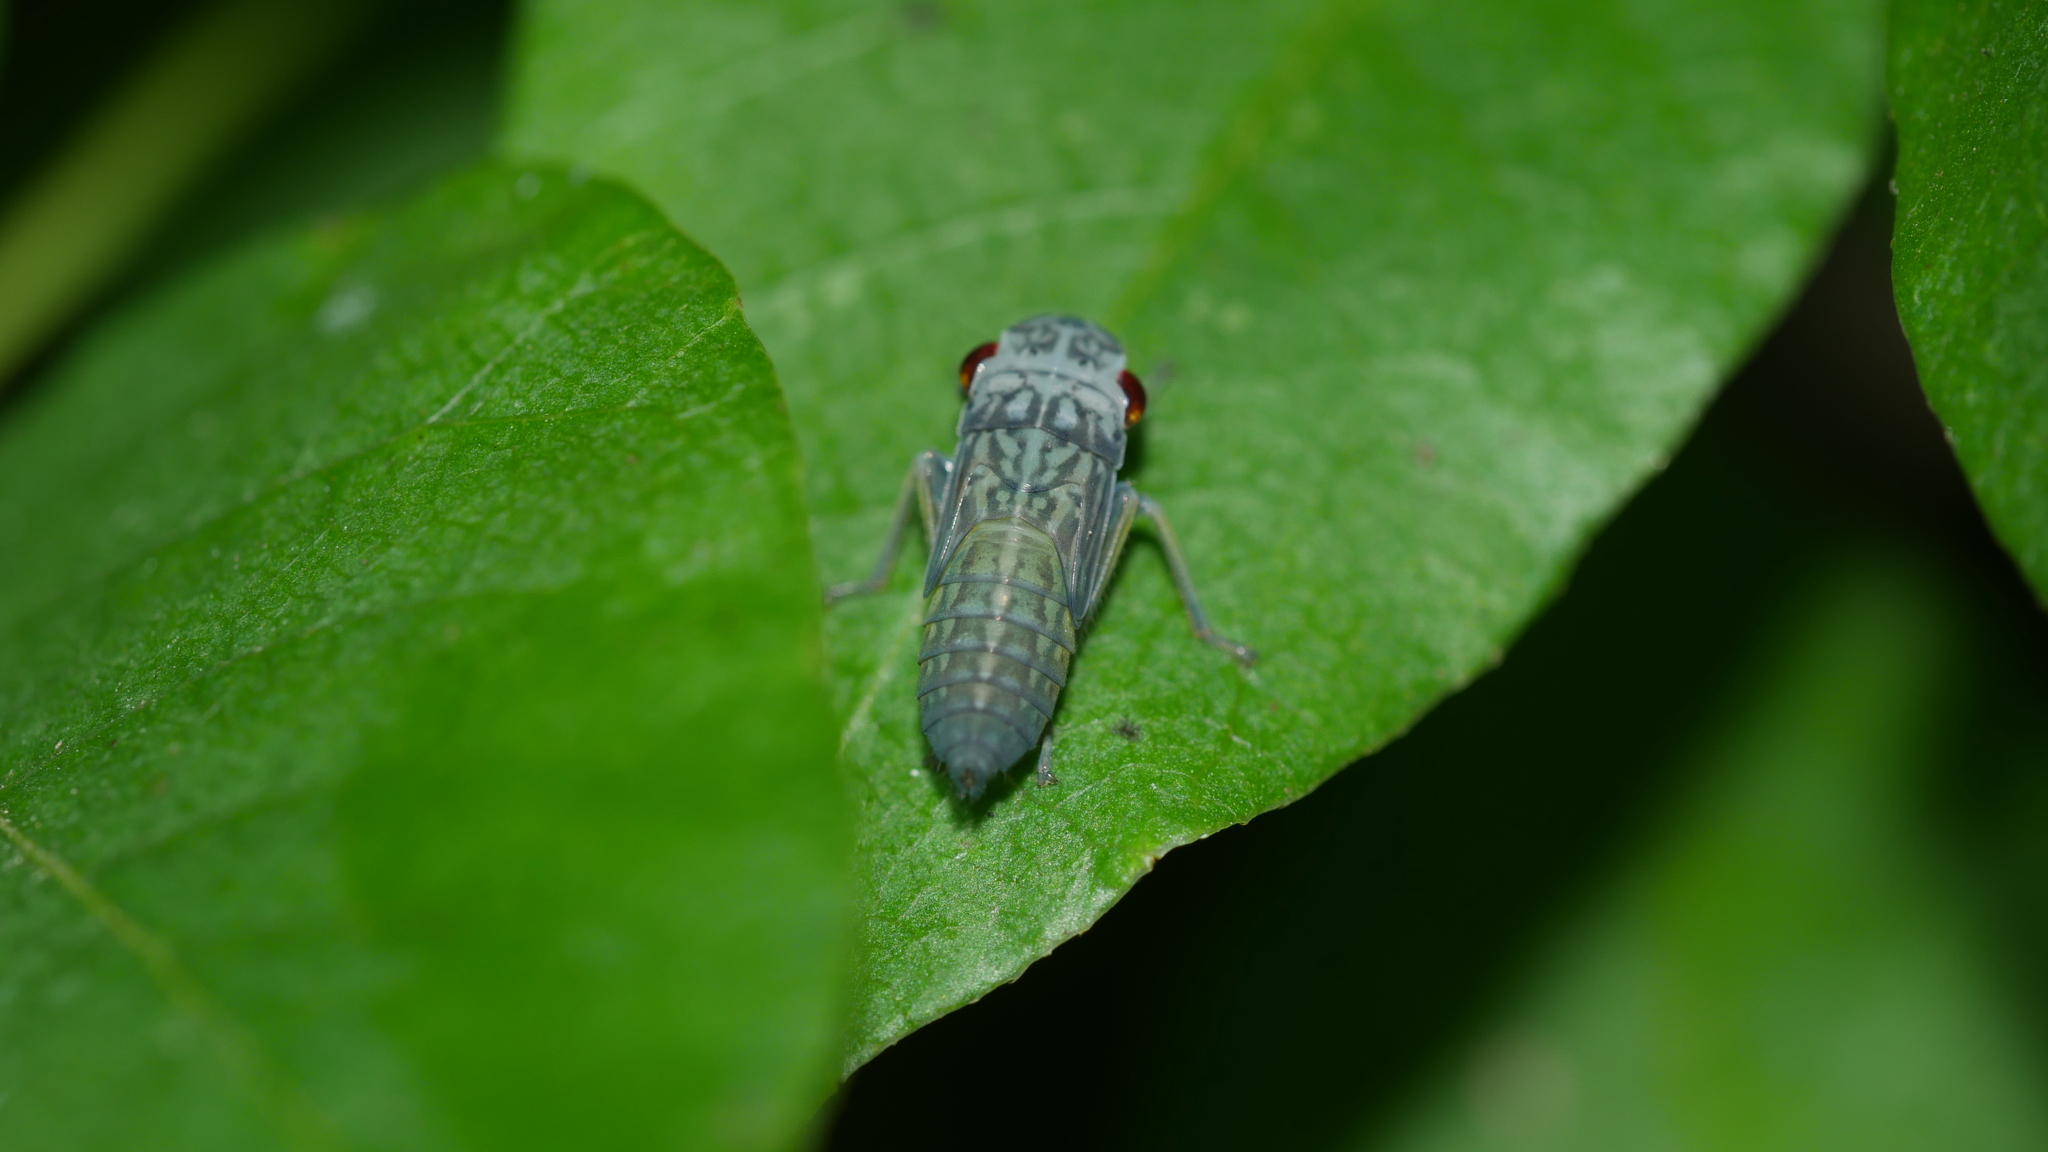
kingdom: Animalia
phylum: Arthropoda
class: Insecta
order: Hemiptera
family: Cicadellidae
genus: Oncometopia
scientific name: Oncometopia orbona
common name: Broad-headed sharpshooter
